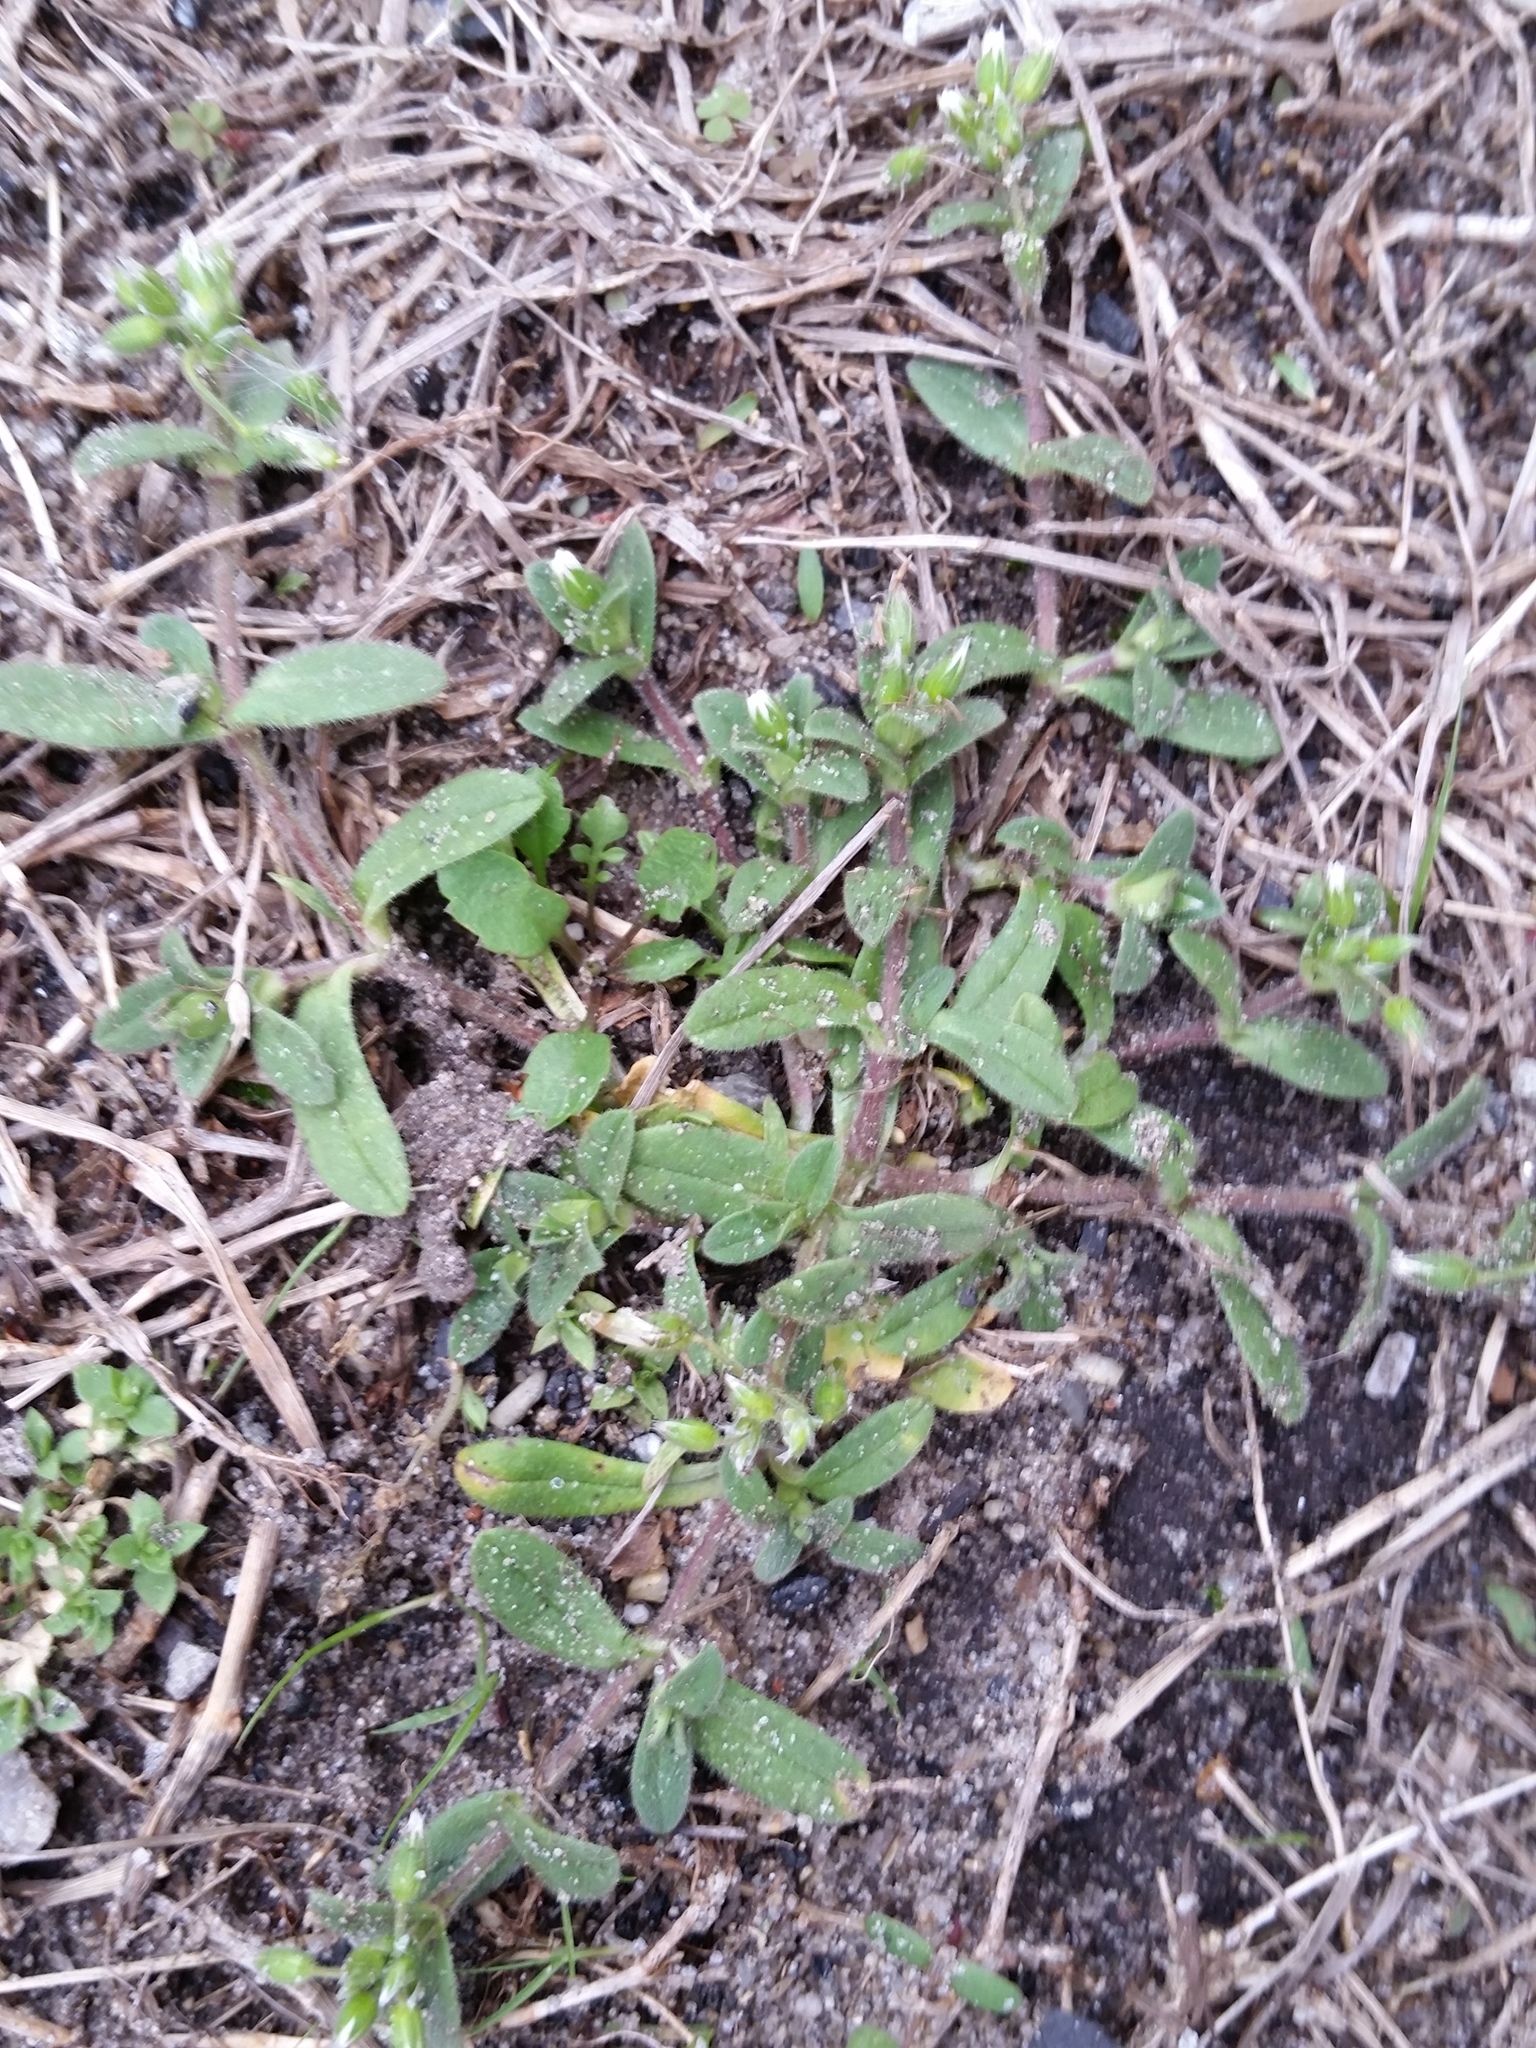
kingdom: Plantae
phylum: Tracheophyta
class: Magnoliopsida
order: Caryophyllales
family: Caryophyllaceae
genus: Cerastium
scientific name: Cerastium fontanum
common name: Common mouse-ear
